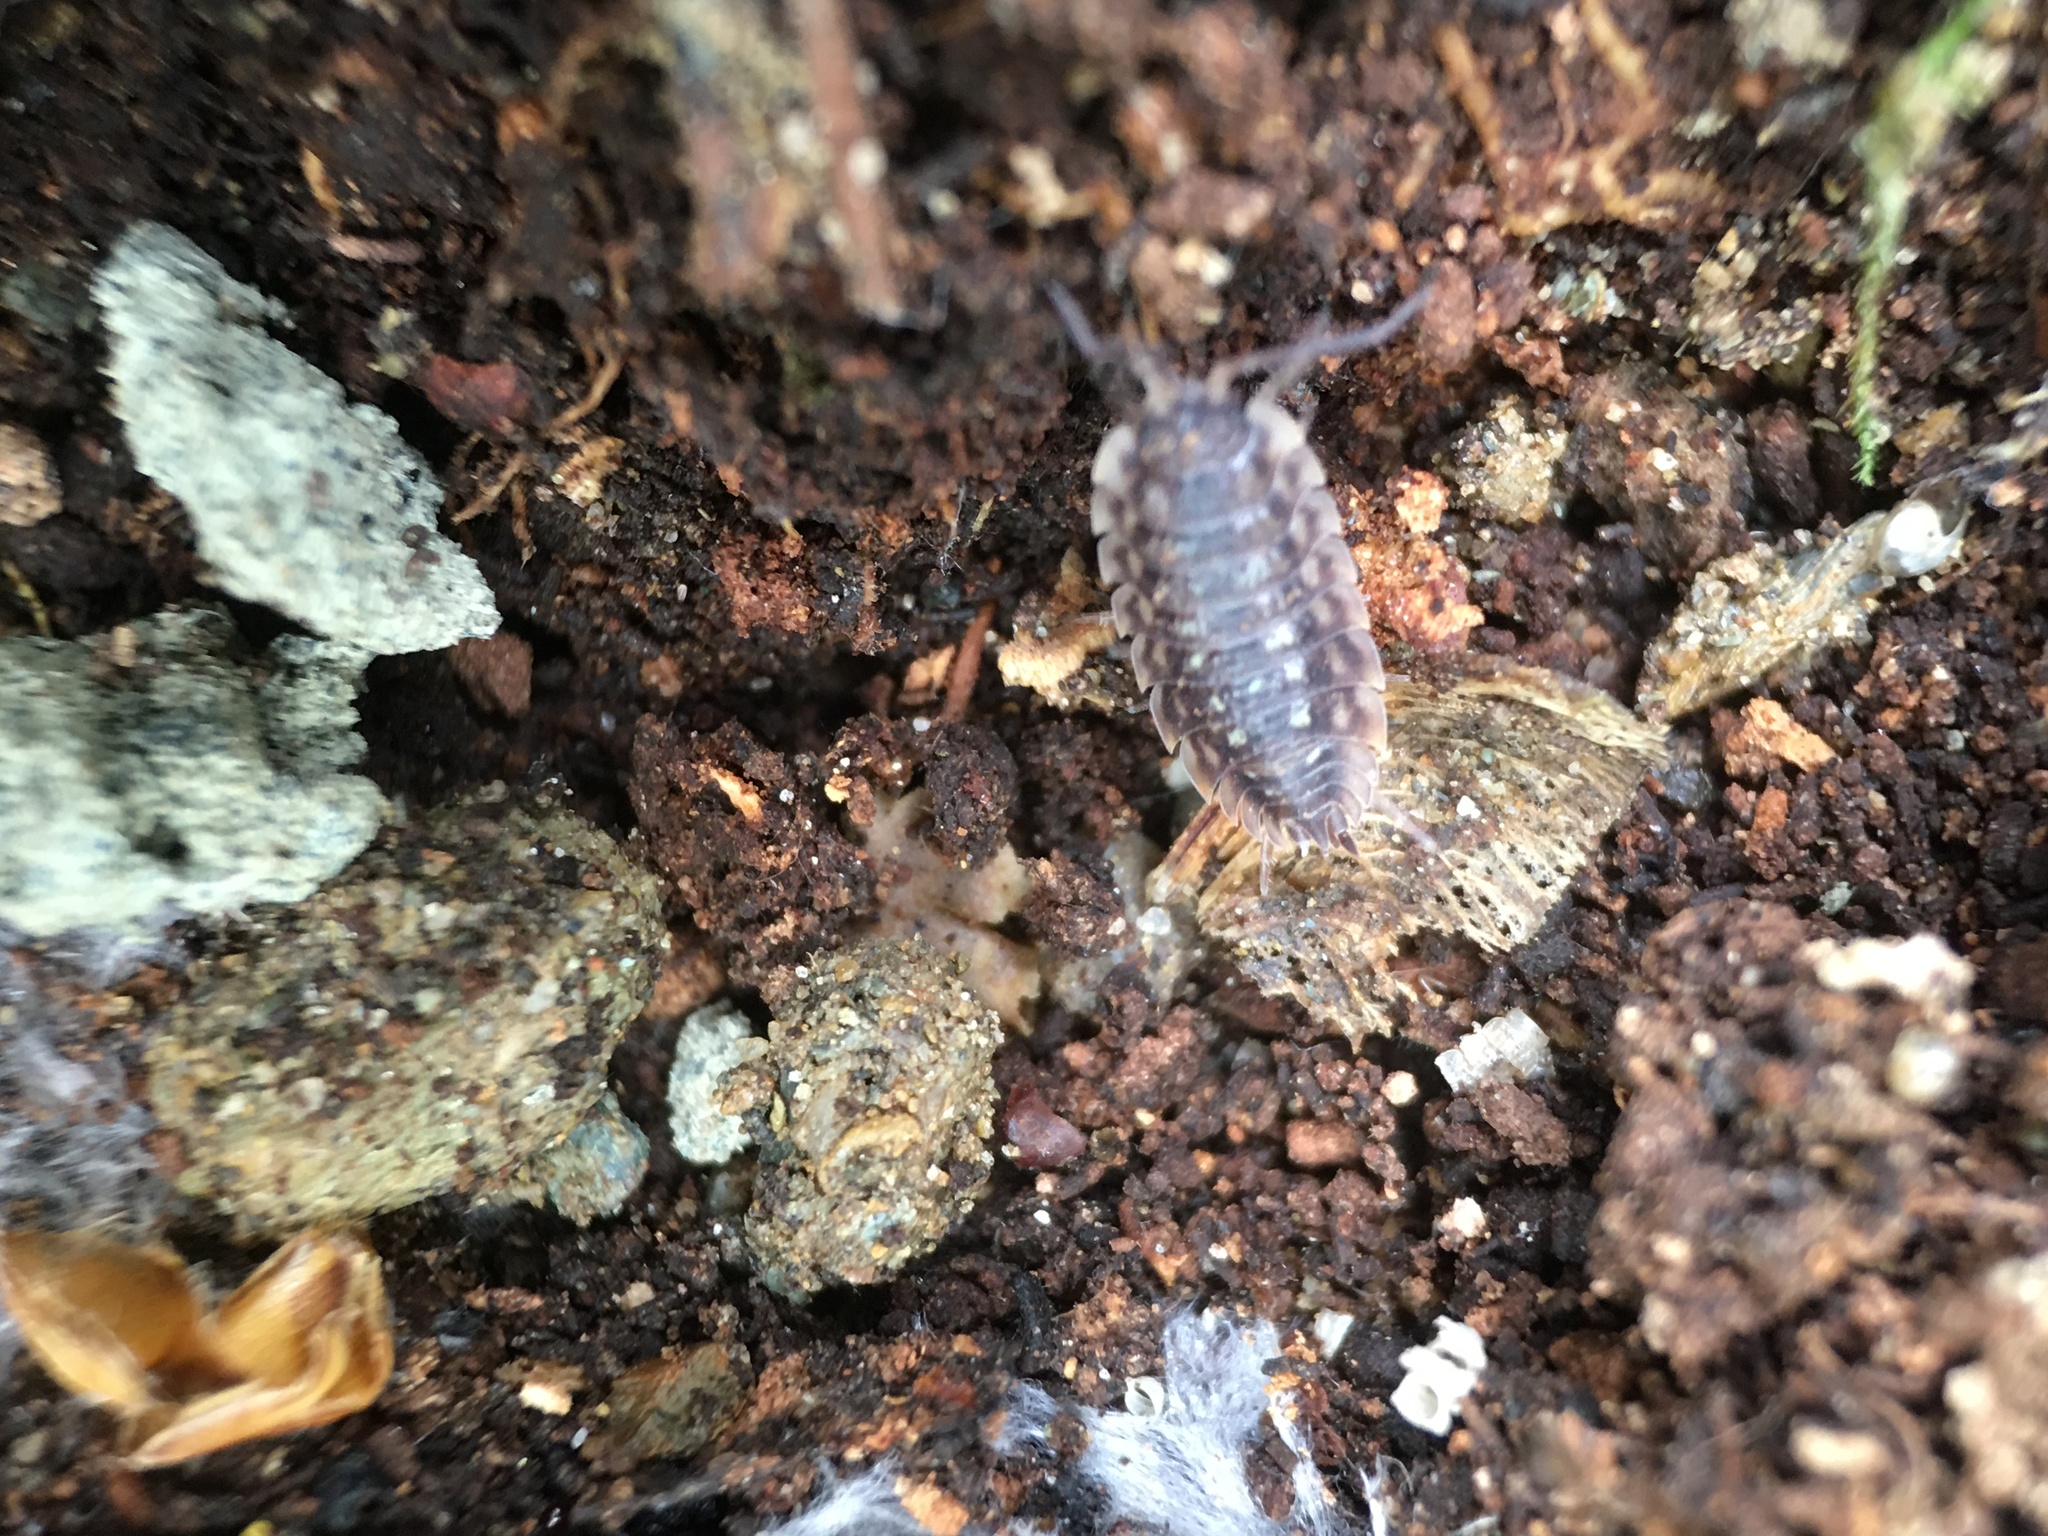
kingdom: Animalia
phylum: Arthropoda
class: Malacostraca
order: Isopoda
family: Oniscidae
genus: Oniscus
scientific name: Oniscus asellus
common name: Common shiny woodlouse
